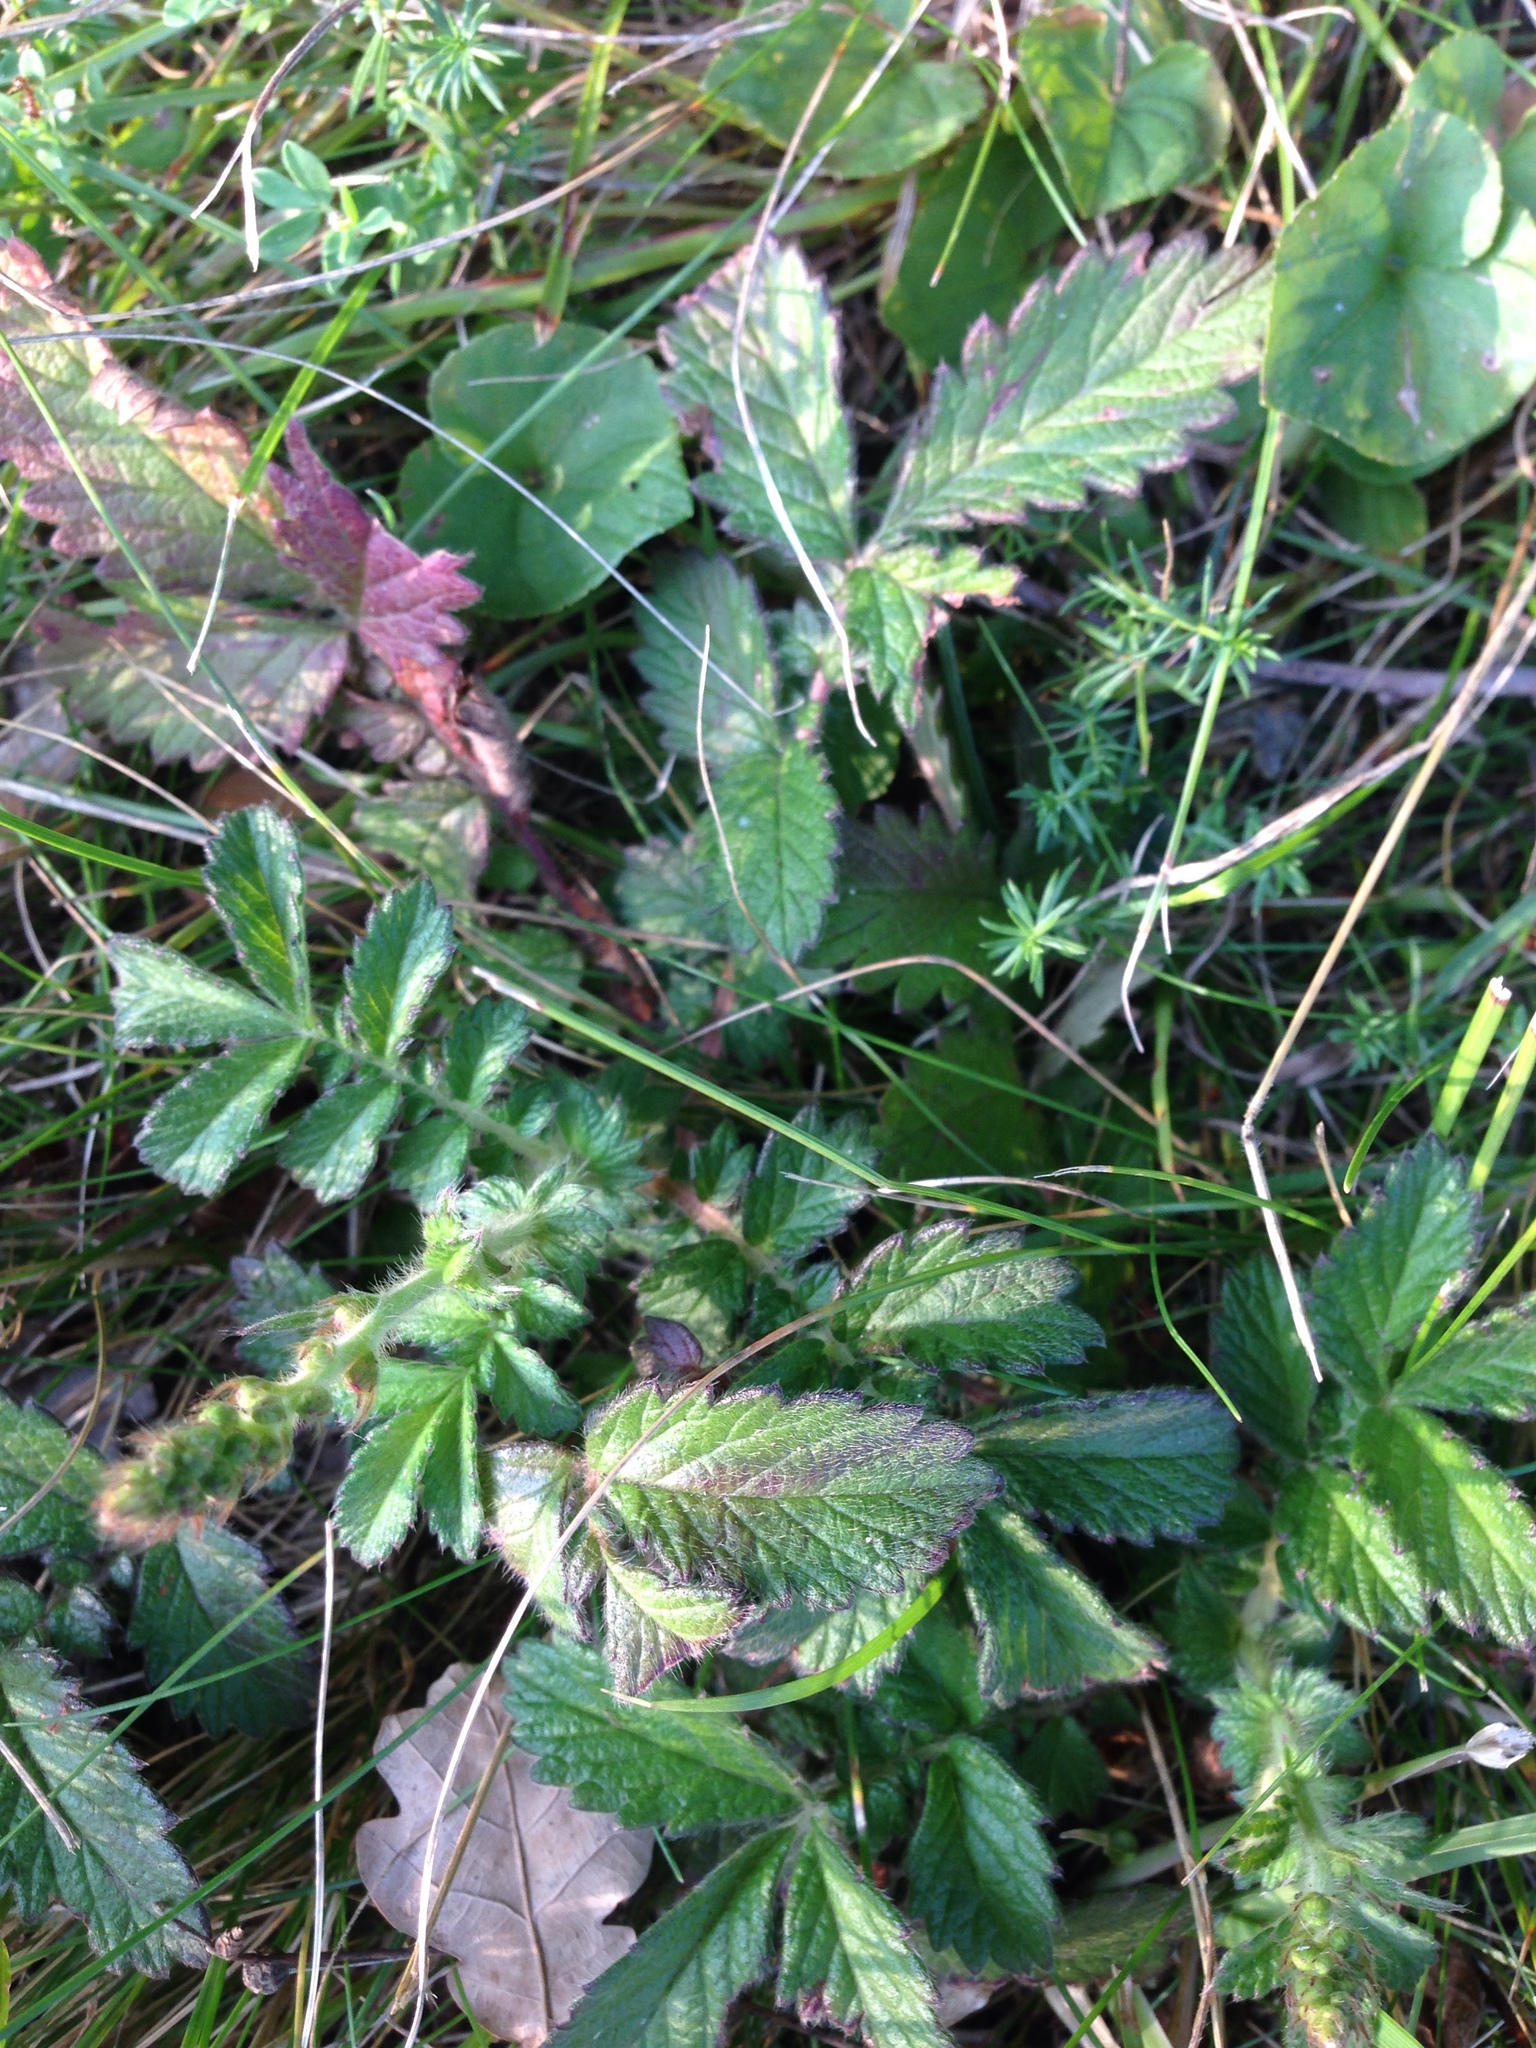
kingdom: Plantae
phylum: Tracheophyta
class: Magnoliopsida
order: Rosales
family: Rosaceae
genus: Agrimonia
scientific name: Agrimonia eupatoria
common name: Agrimony
